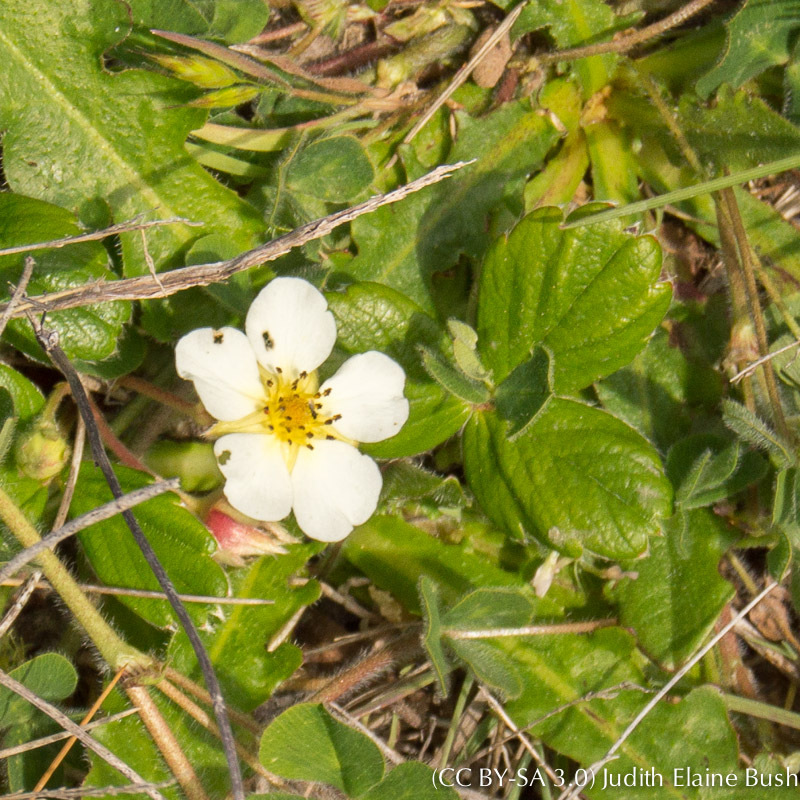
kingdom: Plantae
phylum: Tracheophyta
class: Magnoliopsida
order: Rosales
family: Rosaceae
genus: Fragaria
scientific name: Fragaria chiloensis
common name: Beach strawberry
